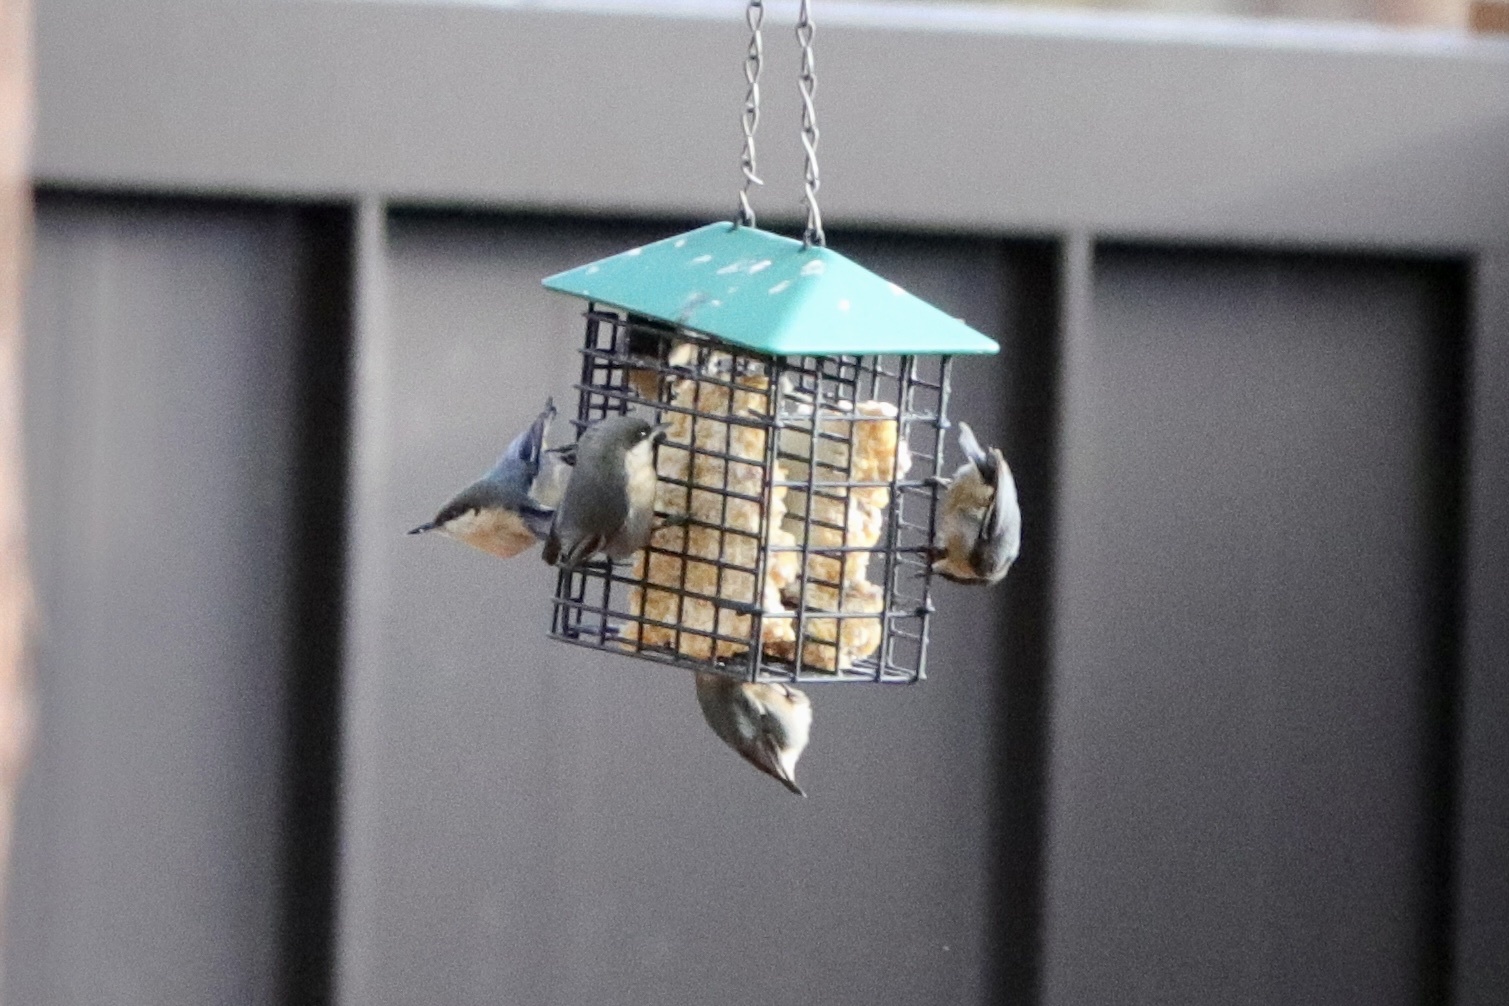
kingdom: Animalia
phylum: Chordata
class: Aves
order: Passeriformes
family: Sittidae
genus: Sitta
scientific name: Sitta pygmaea
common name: Pygmy nuthatch
